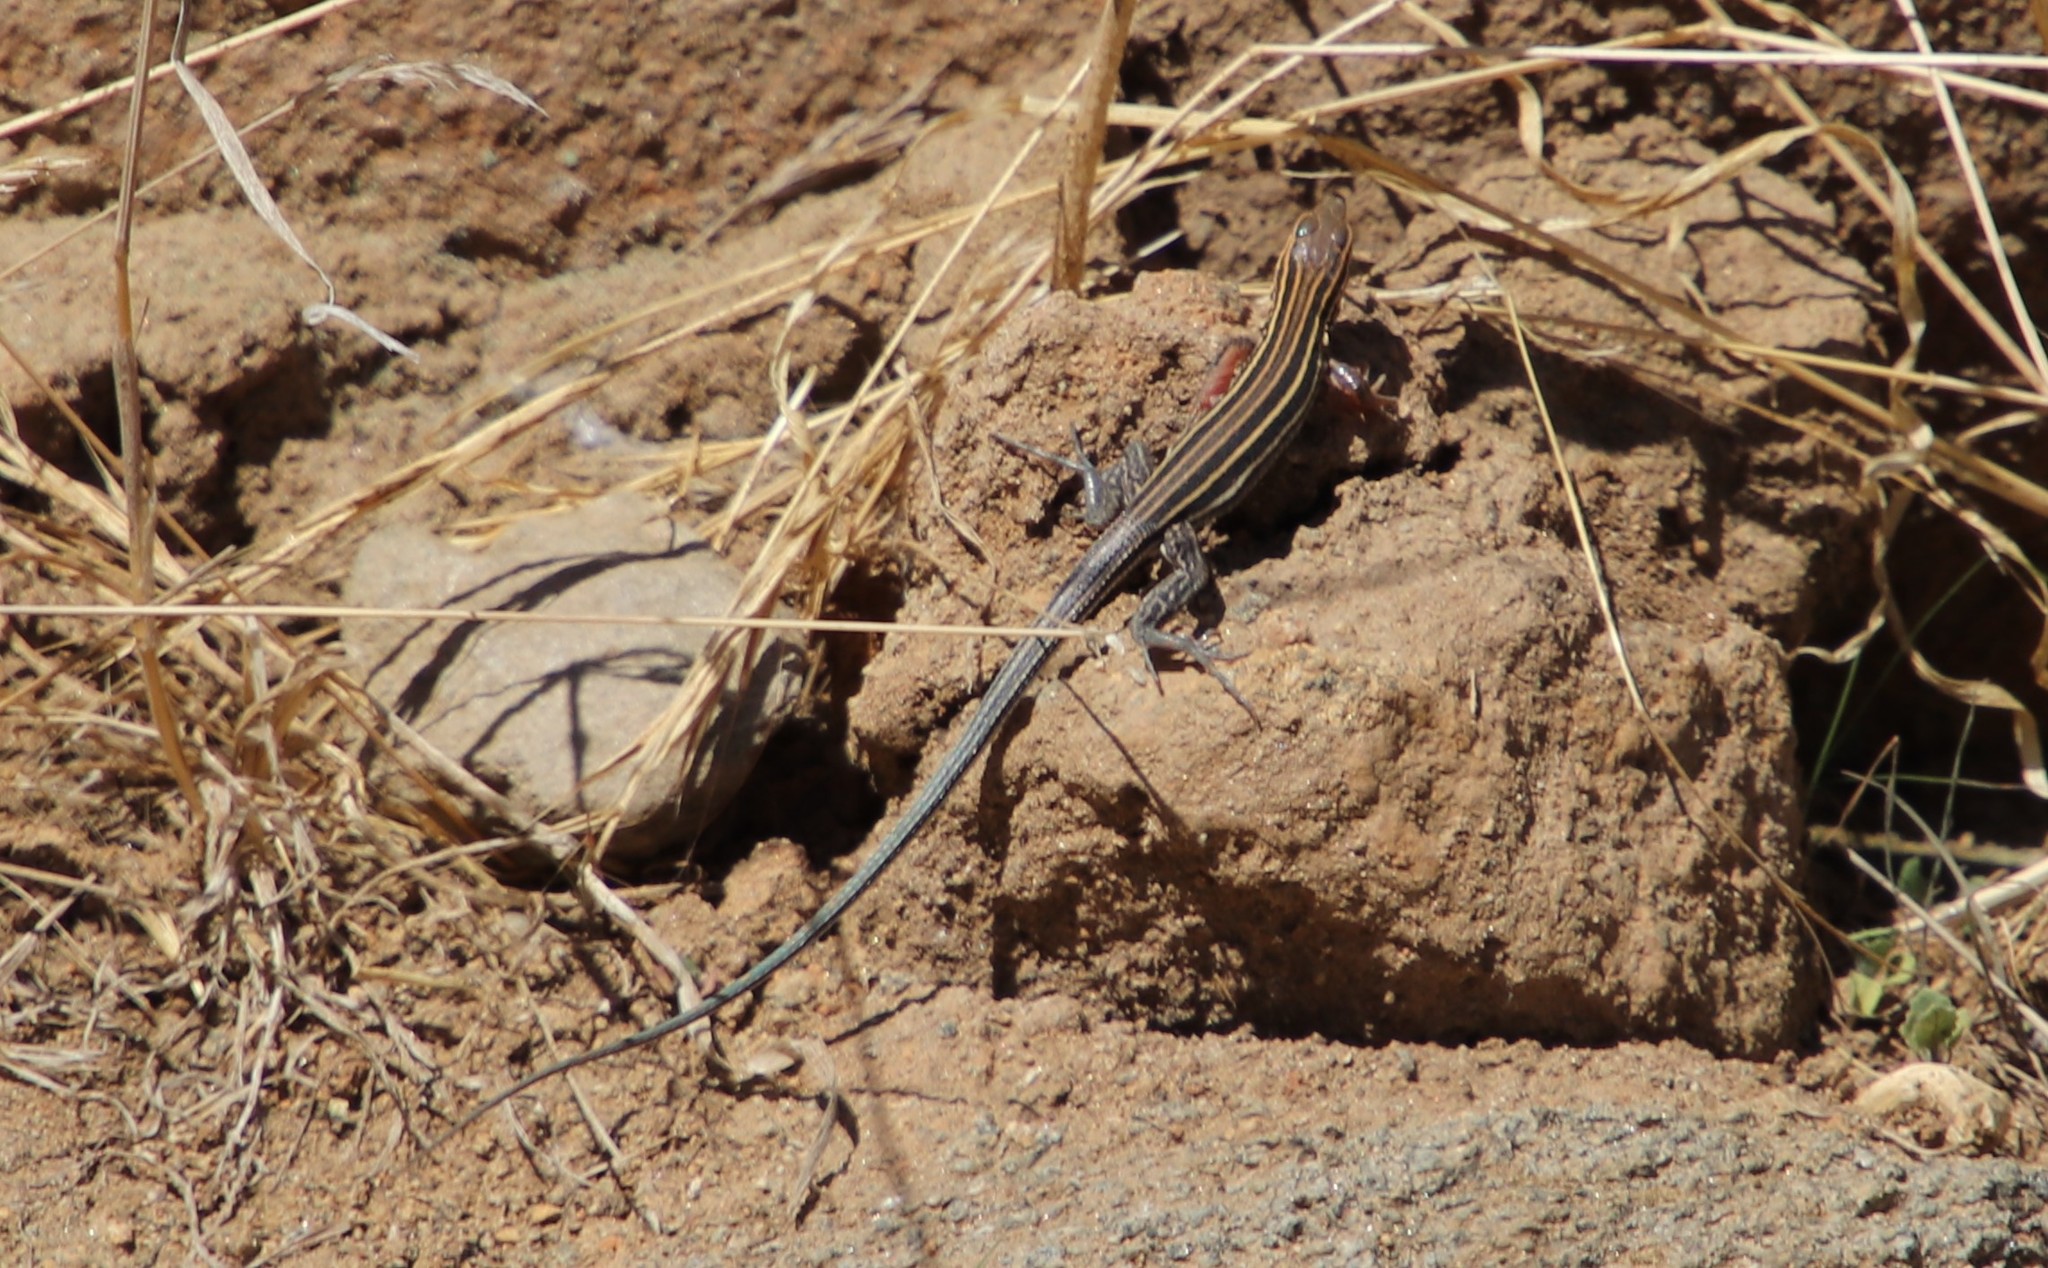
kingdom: Animalia
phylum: Chordata
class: Squamata
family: Teiidae
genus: Aspidoscelis
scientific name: Aspidoscelis hyperythrus
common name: Orange-throated race-runner
